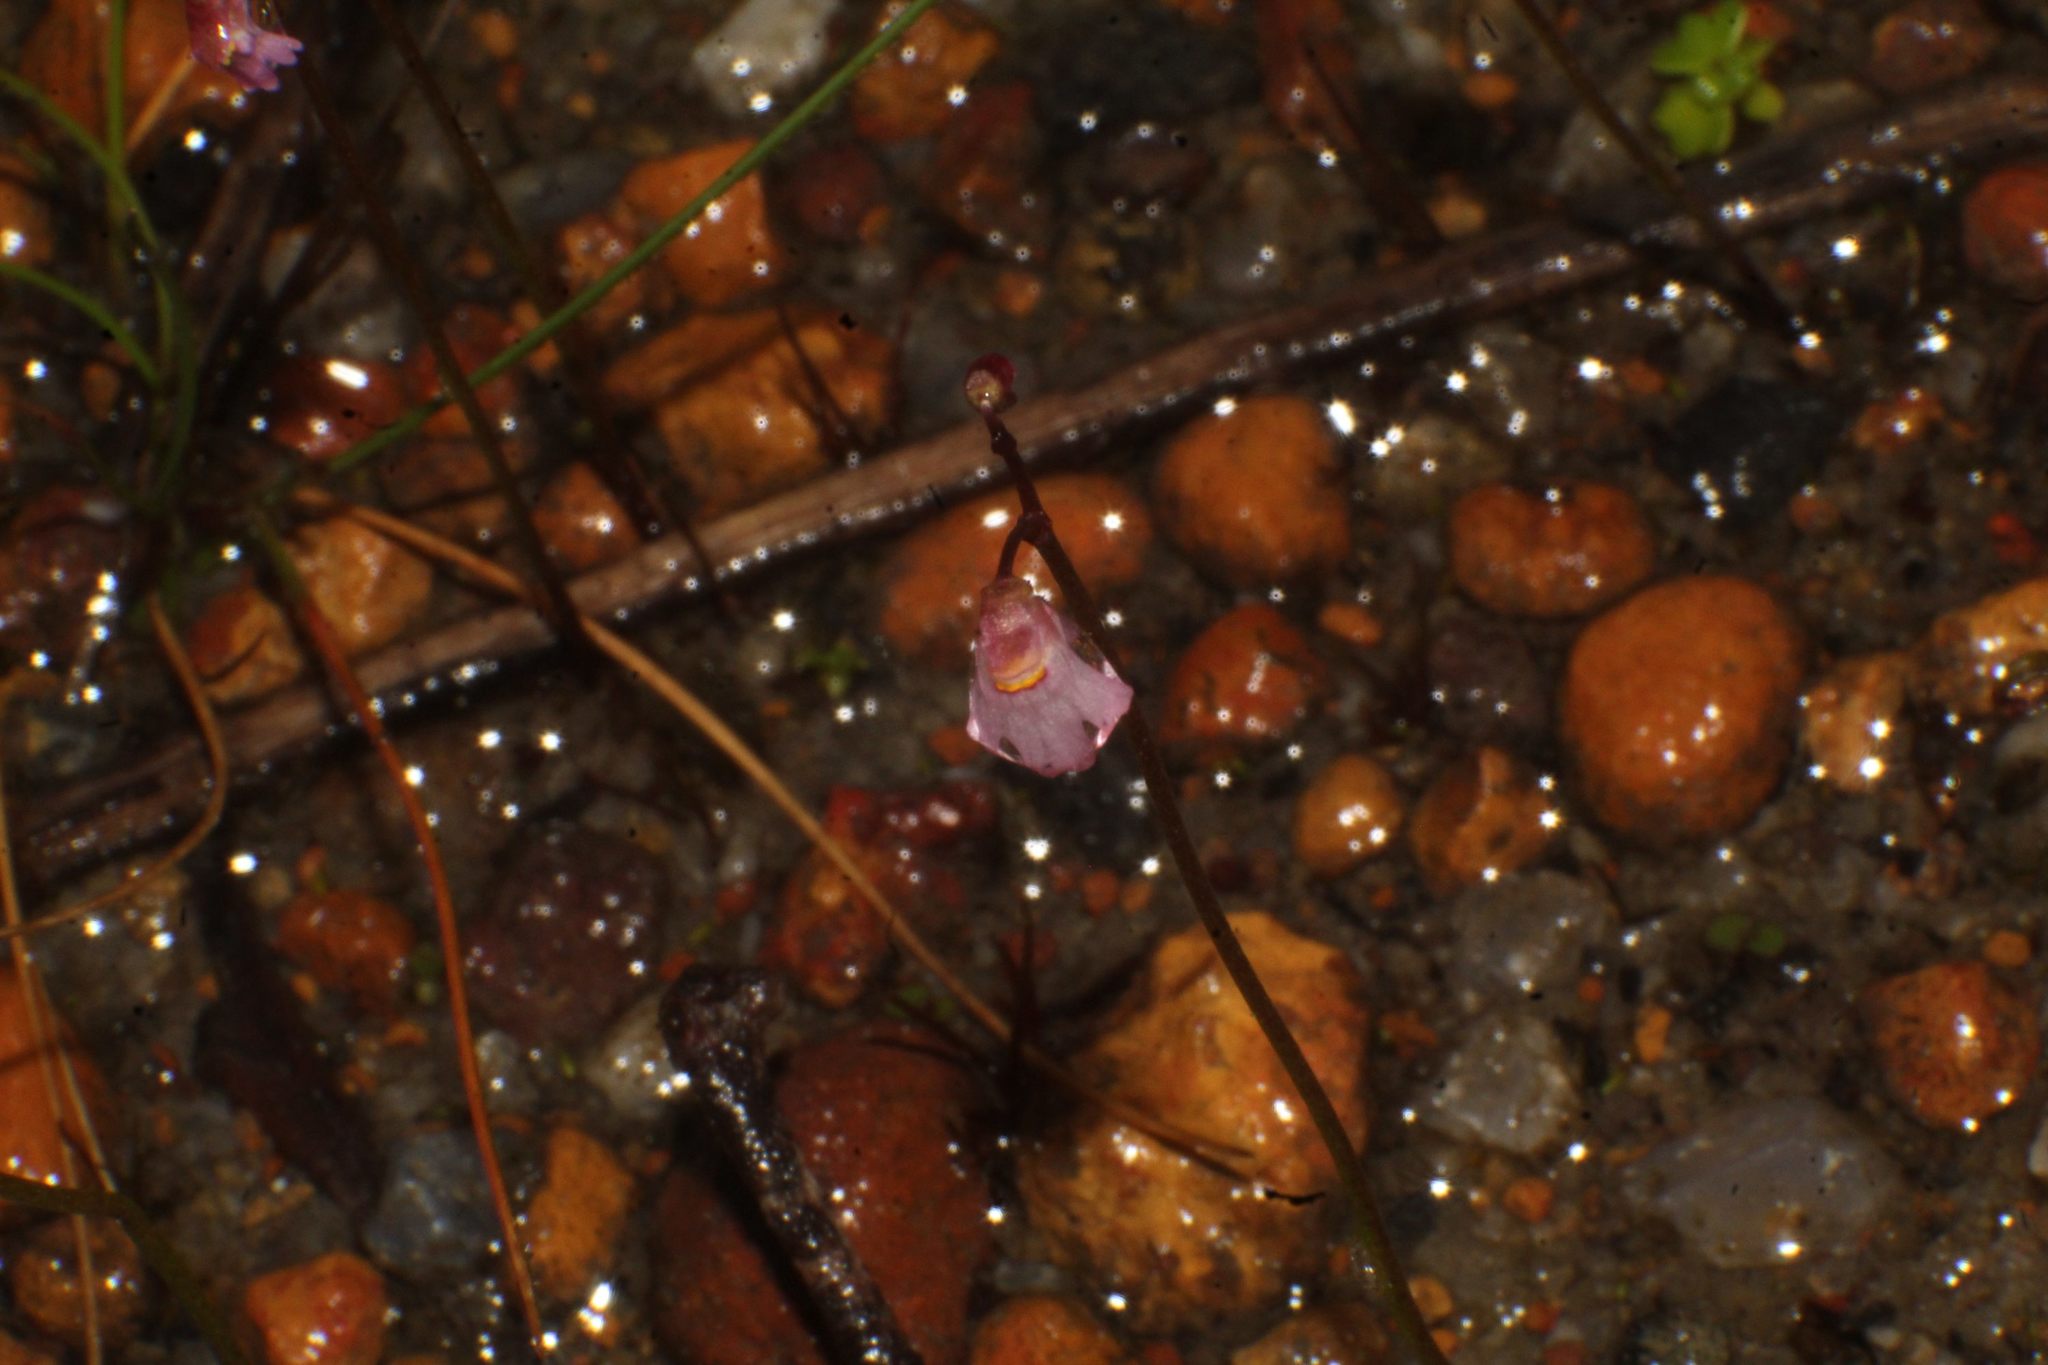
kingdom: Plantae
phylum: Tracheophyta
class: Magnoliopsida
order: Lamiales
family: Lentibulariaceae
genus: Utricularia
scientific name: Utricularia tenella
